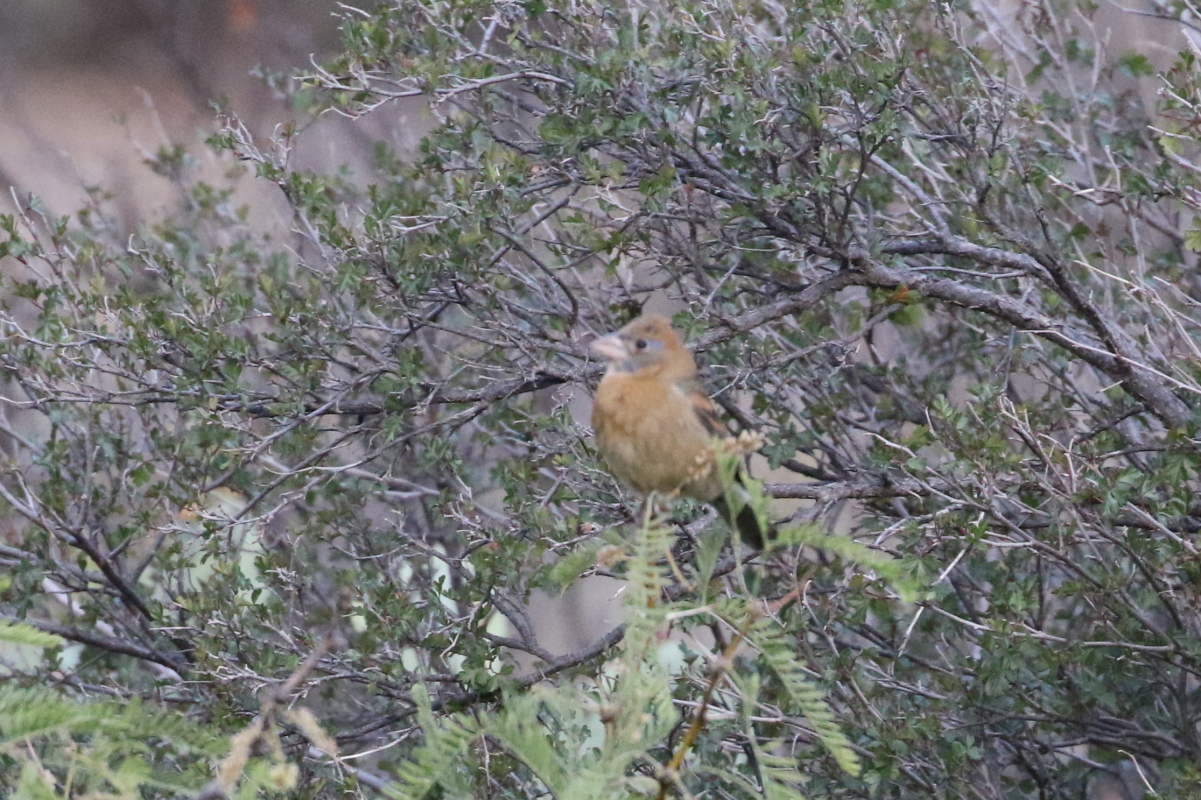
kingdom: Animalia
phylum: Chordata
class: Aves
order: Passeriformes
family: Cardinalidae
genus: Passerina
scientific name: Passerina caerulea
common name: Blue grosbeak
